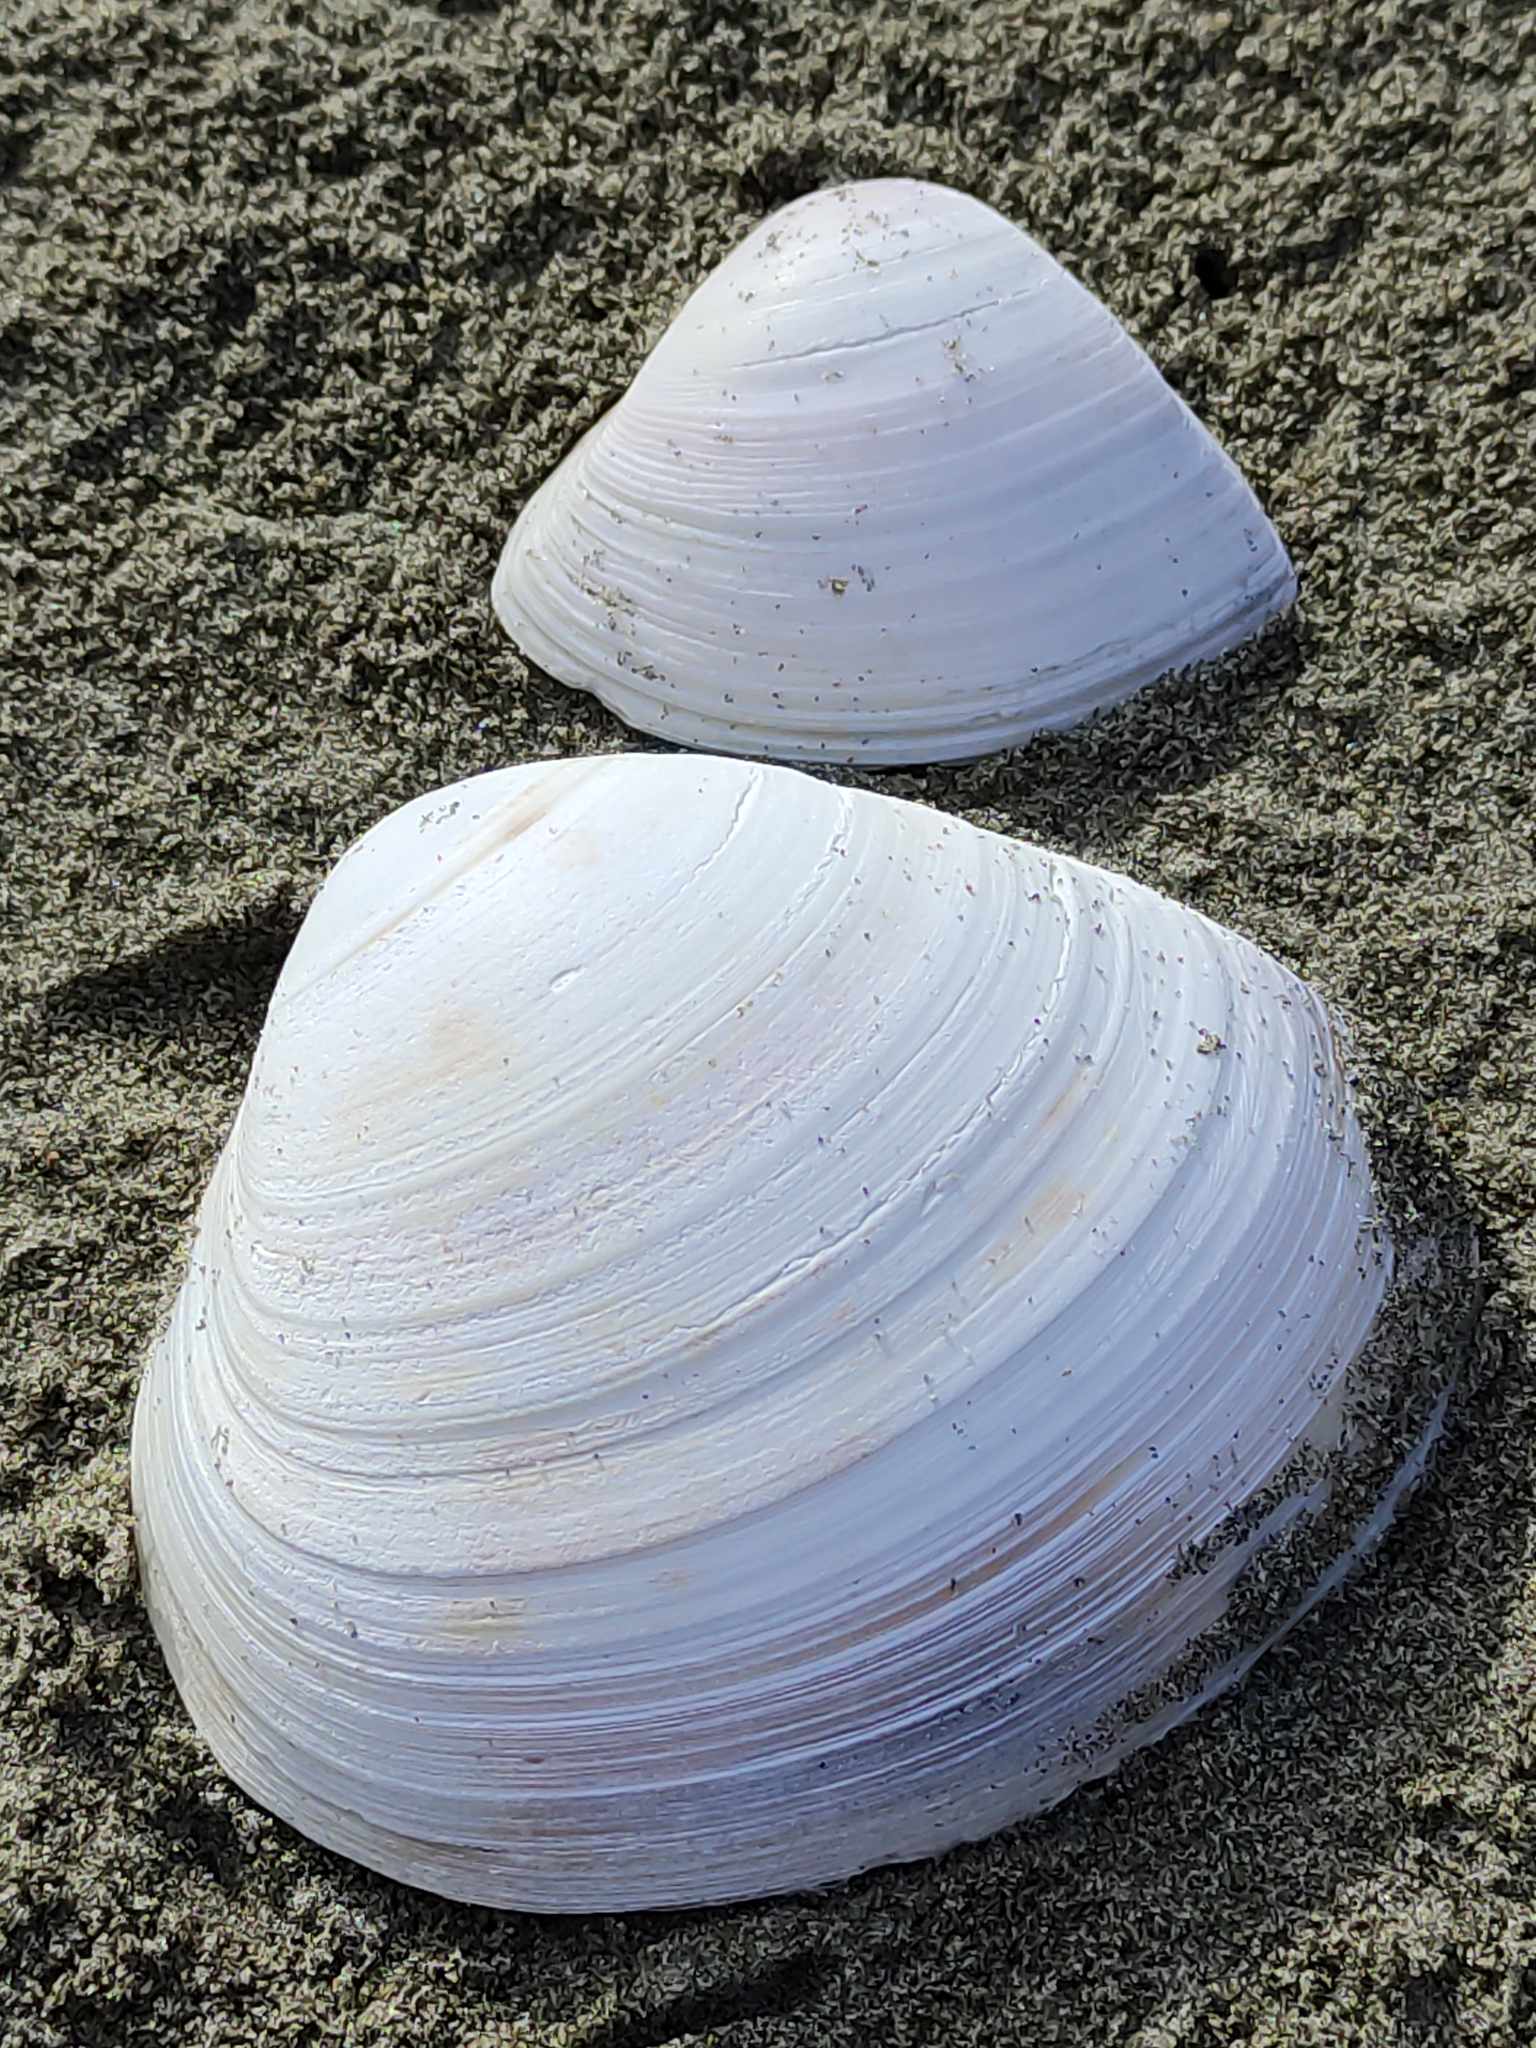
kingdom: Animalia
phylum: Mollusca
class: Bivalvia
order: Venerida
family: Mactridae
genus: Spisula
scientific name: Spisula murchisoni
